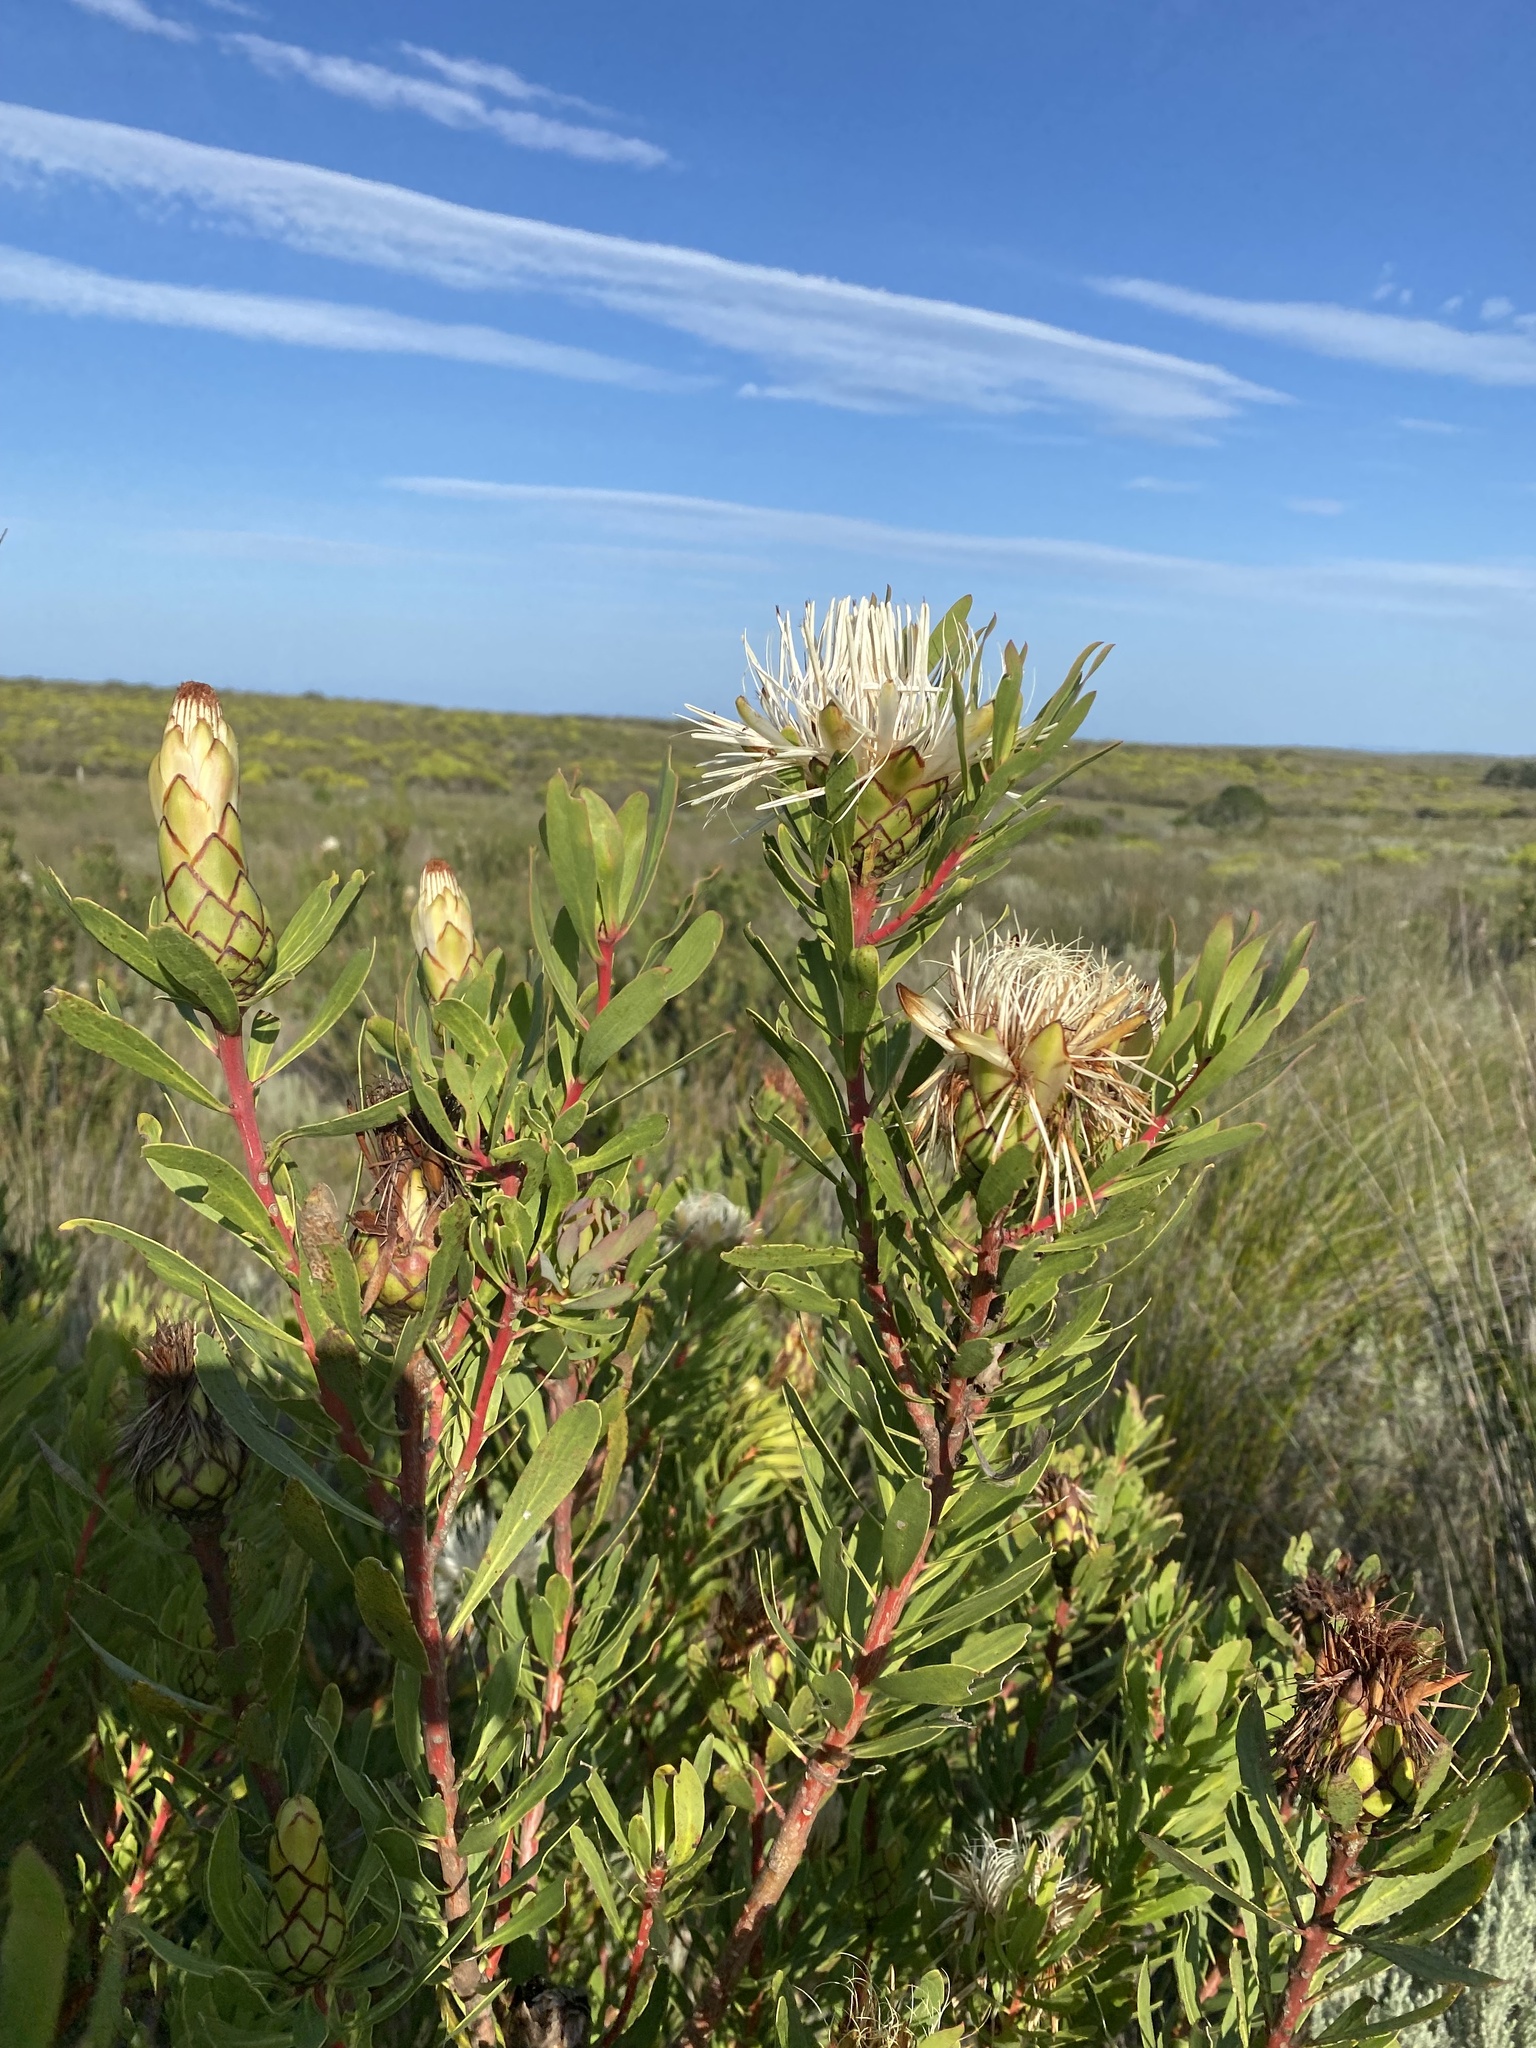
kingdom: Plantae
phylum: Tracheophyta
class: Magnoliopsida
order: Proteales
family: Proteaceae
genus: Protea
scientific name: Protea lanceolata
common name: Lance-leaved protea
